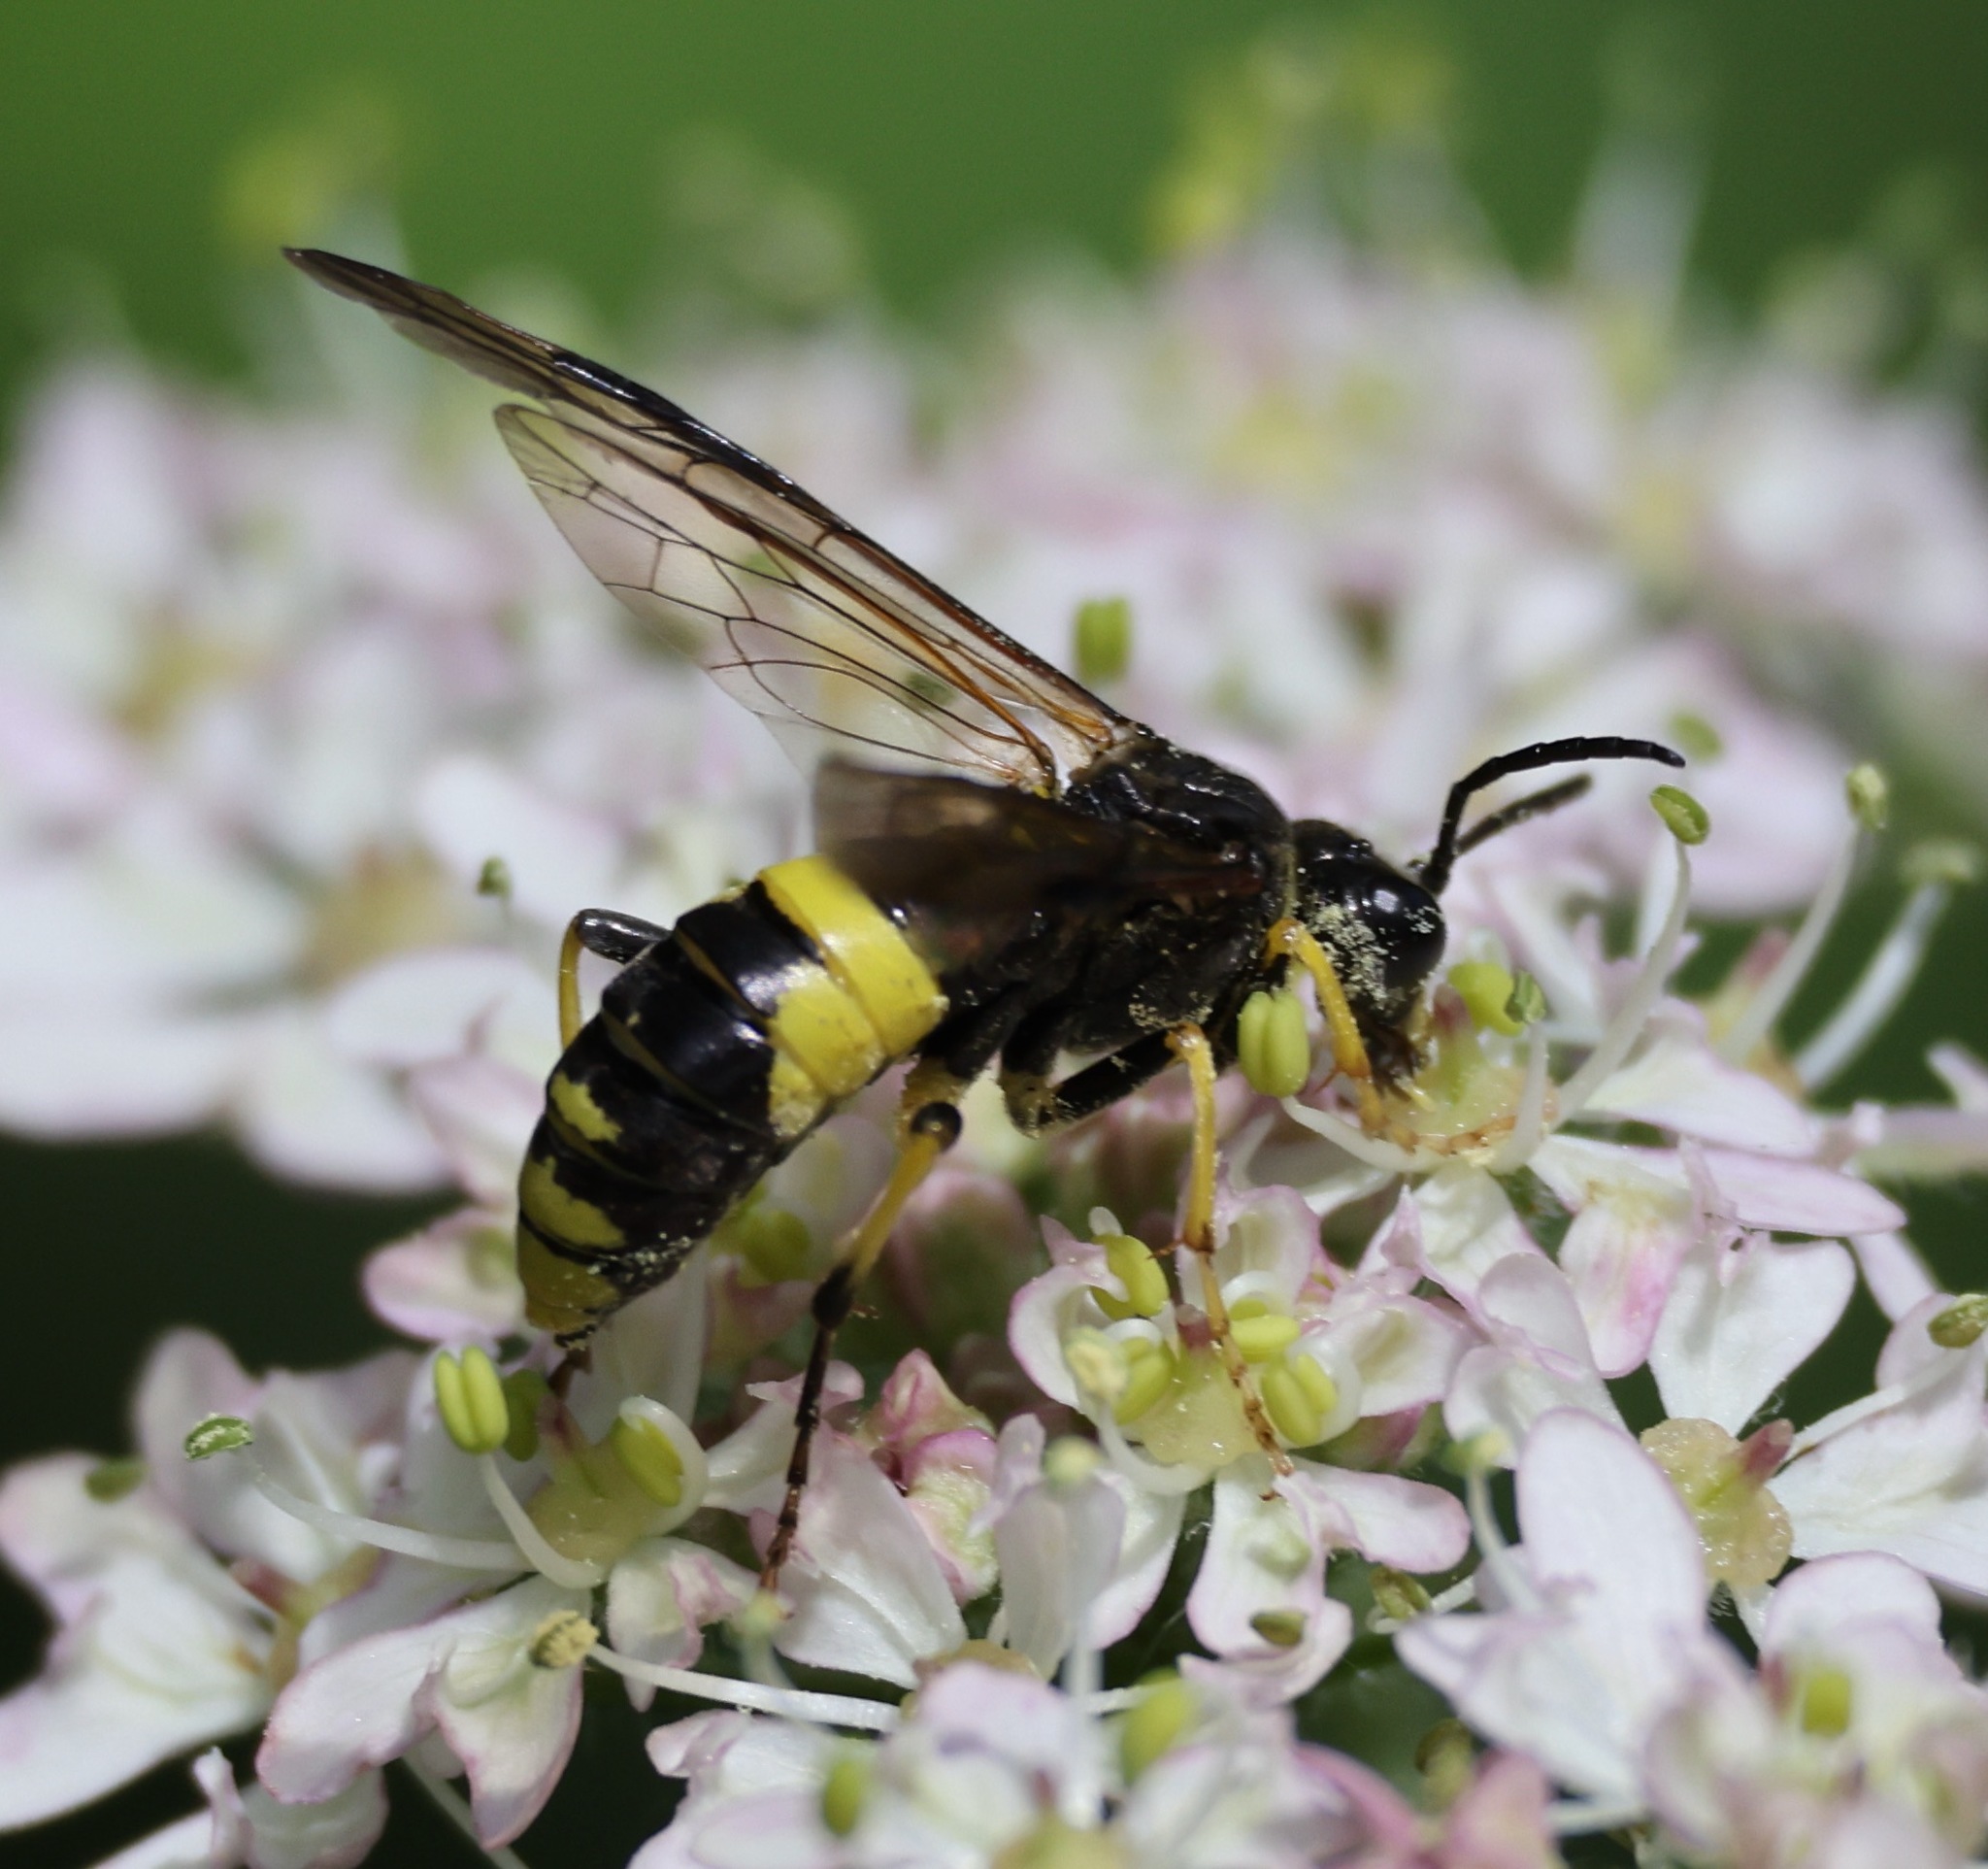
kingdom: Animalia
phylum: Arthropoda
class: Insecta
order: Hymenoptera
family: Tenthredinidae
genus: Tenthredo
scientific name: Tenthredo temula
